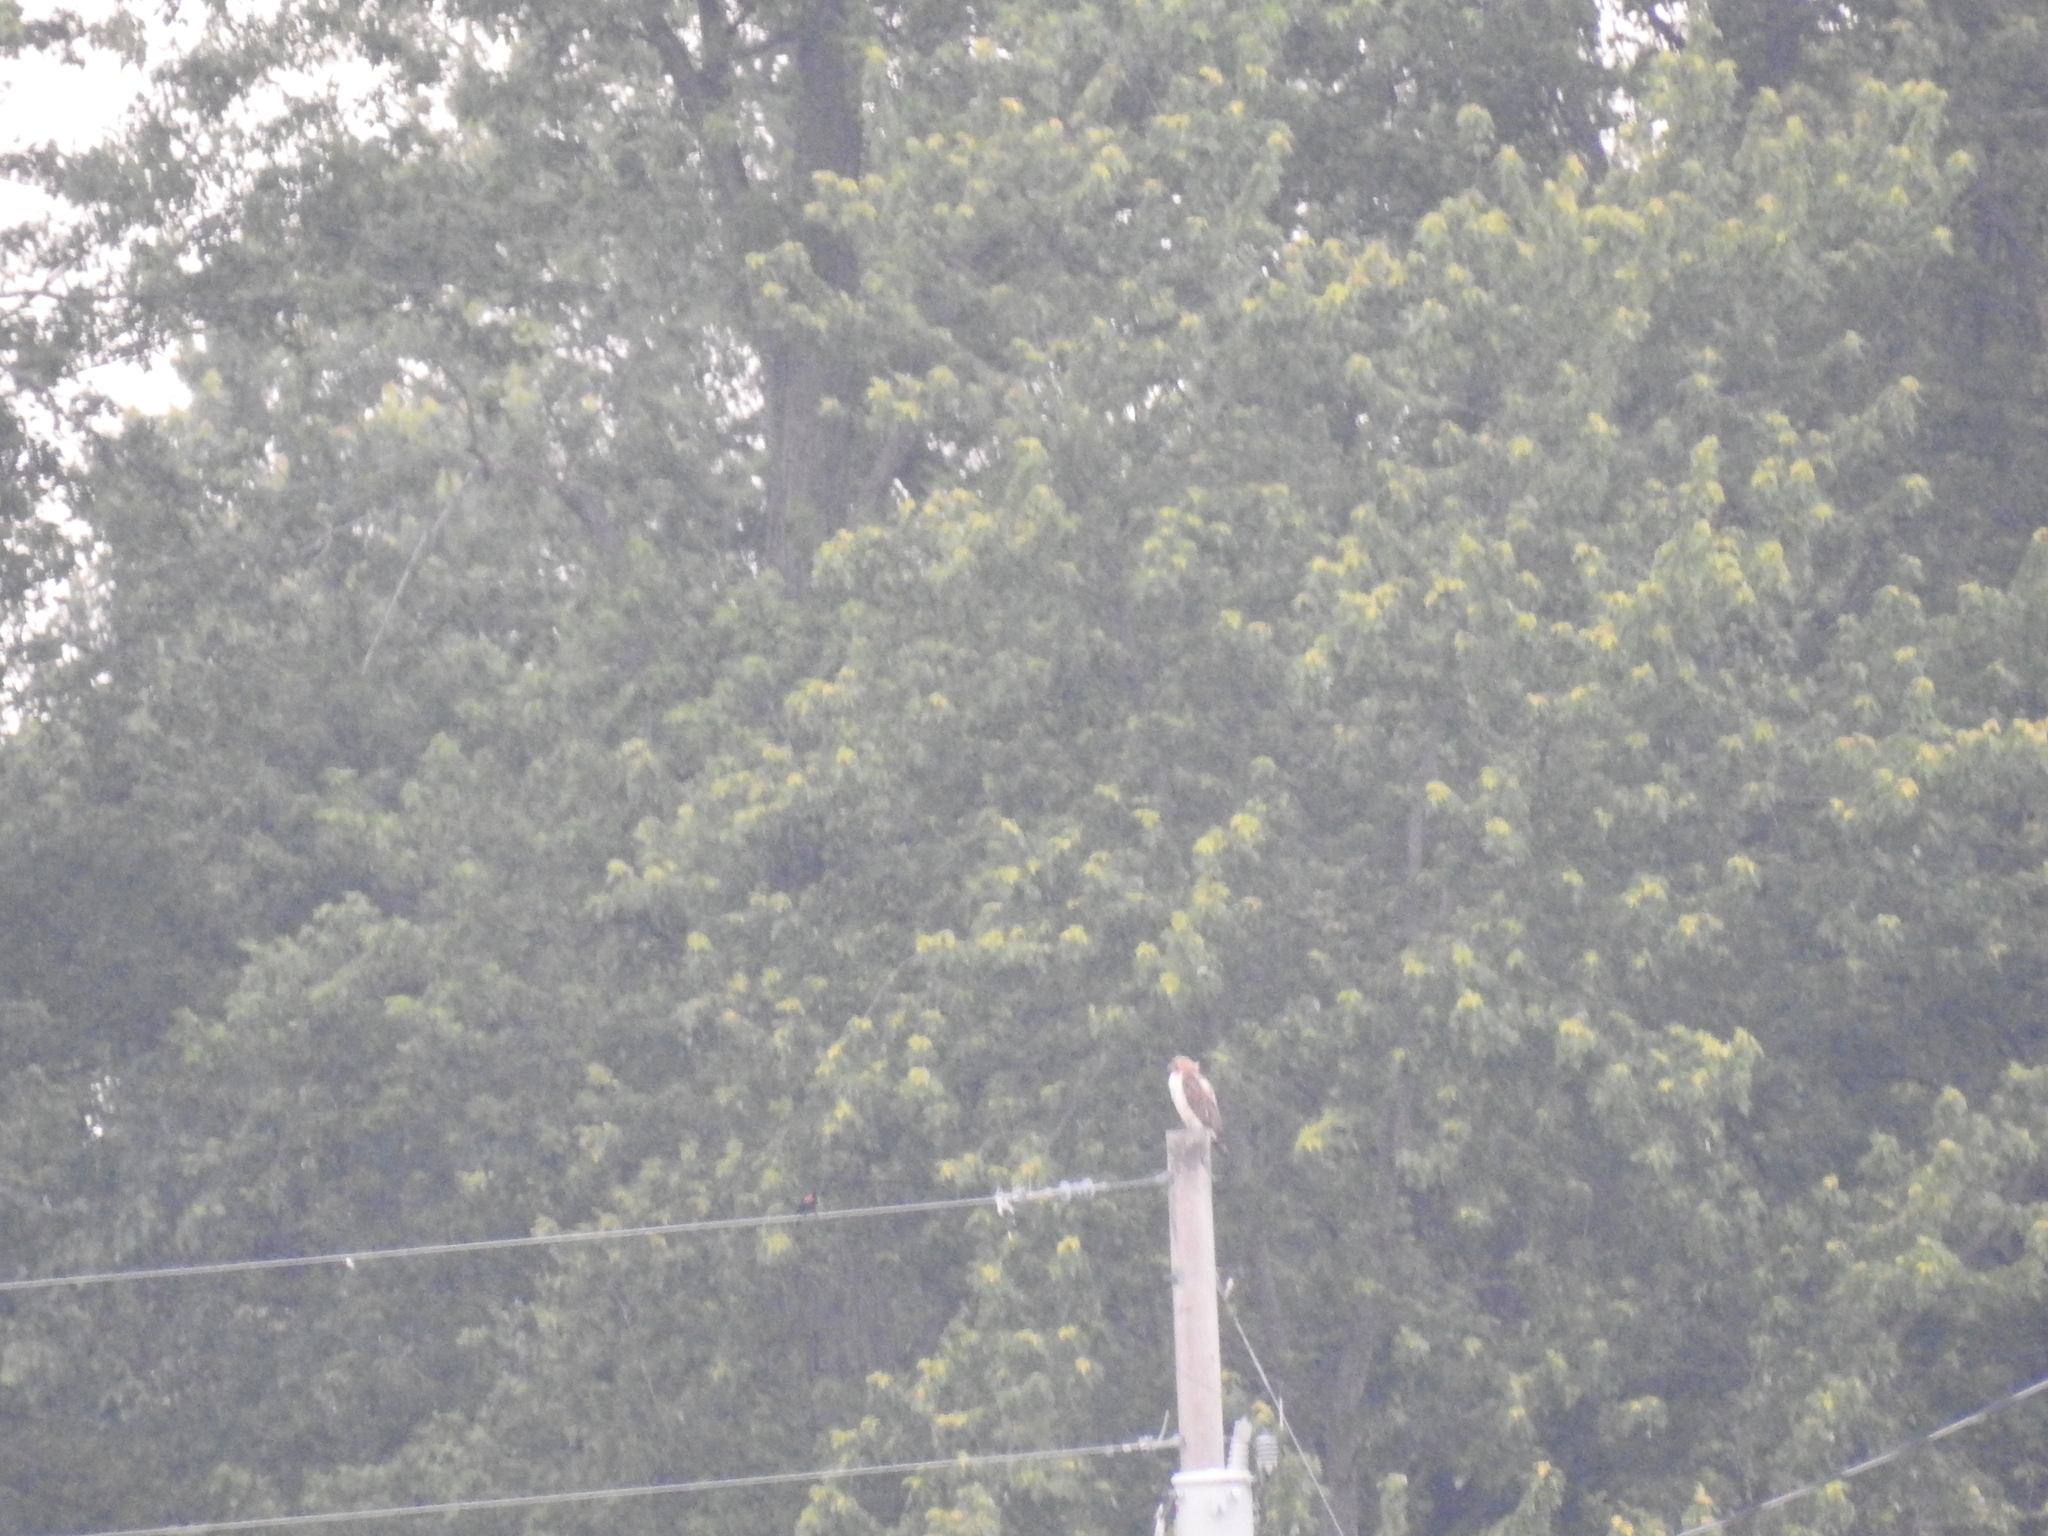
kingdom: Animalia
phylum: Chordata
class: Aves
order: Accipitriformes
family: Accipitridae
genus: Buteo
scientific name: Buteo jamaicensis
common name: Red-tailed hawk
